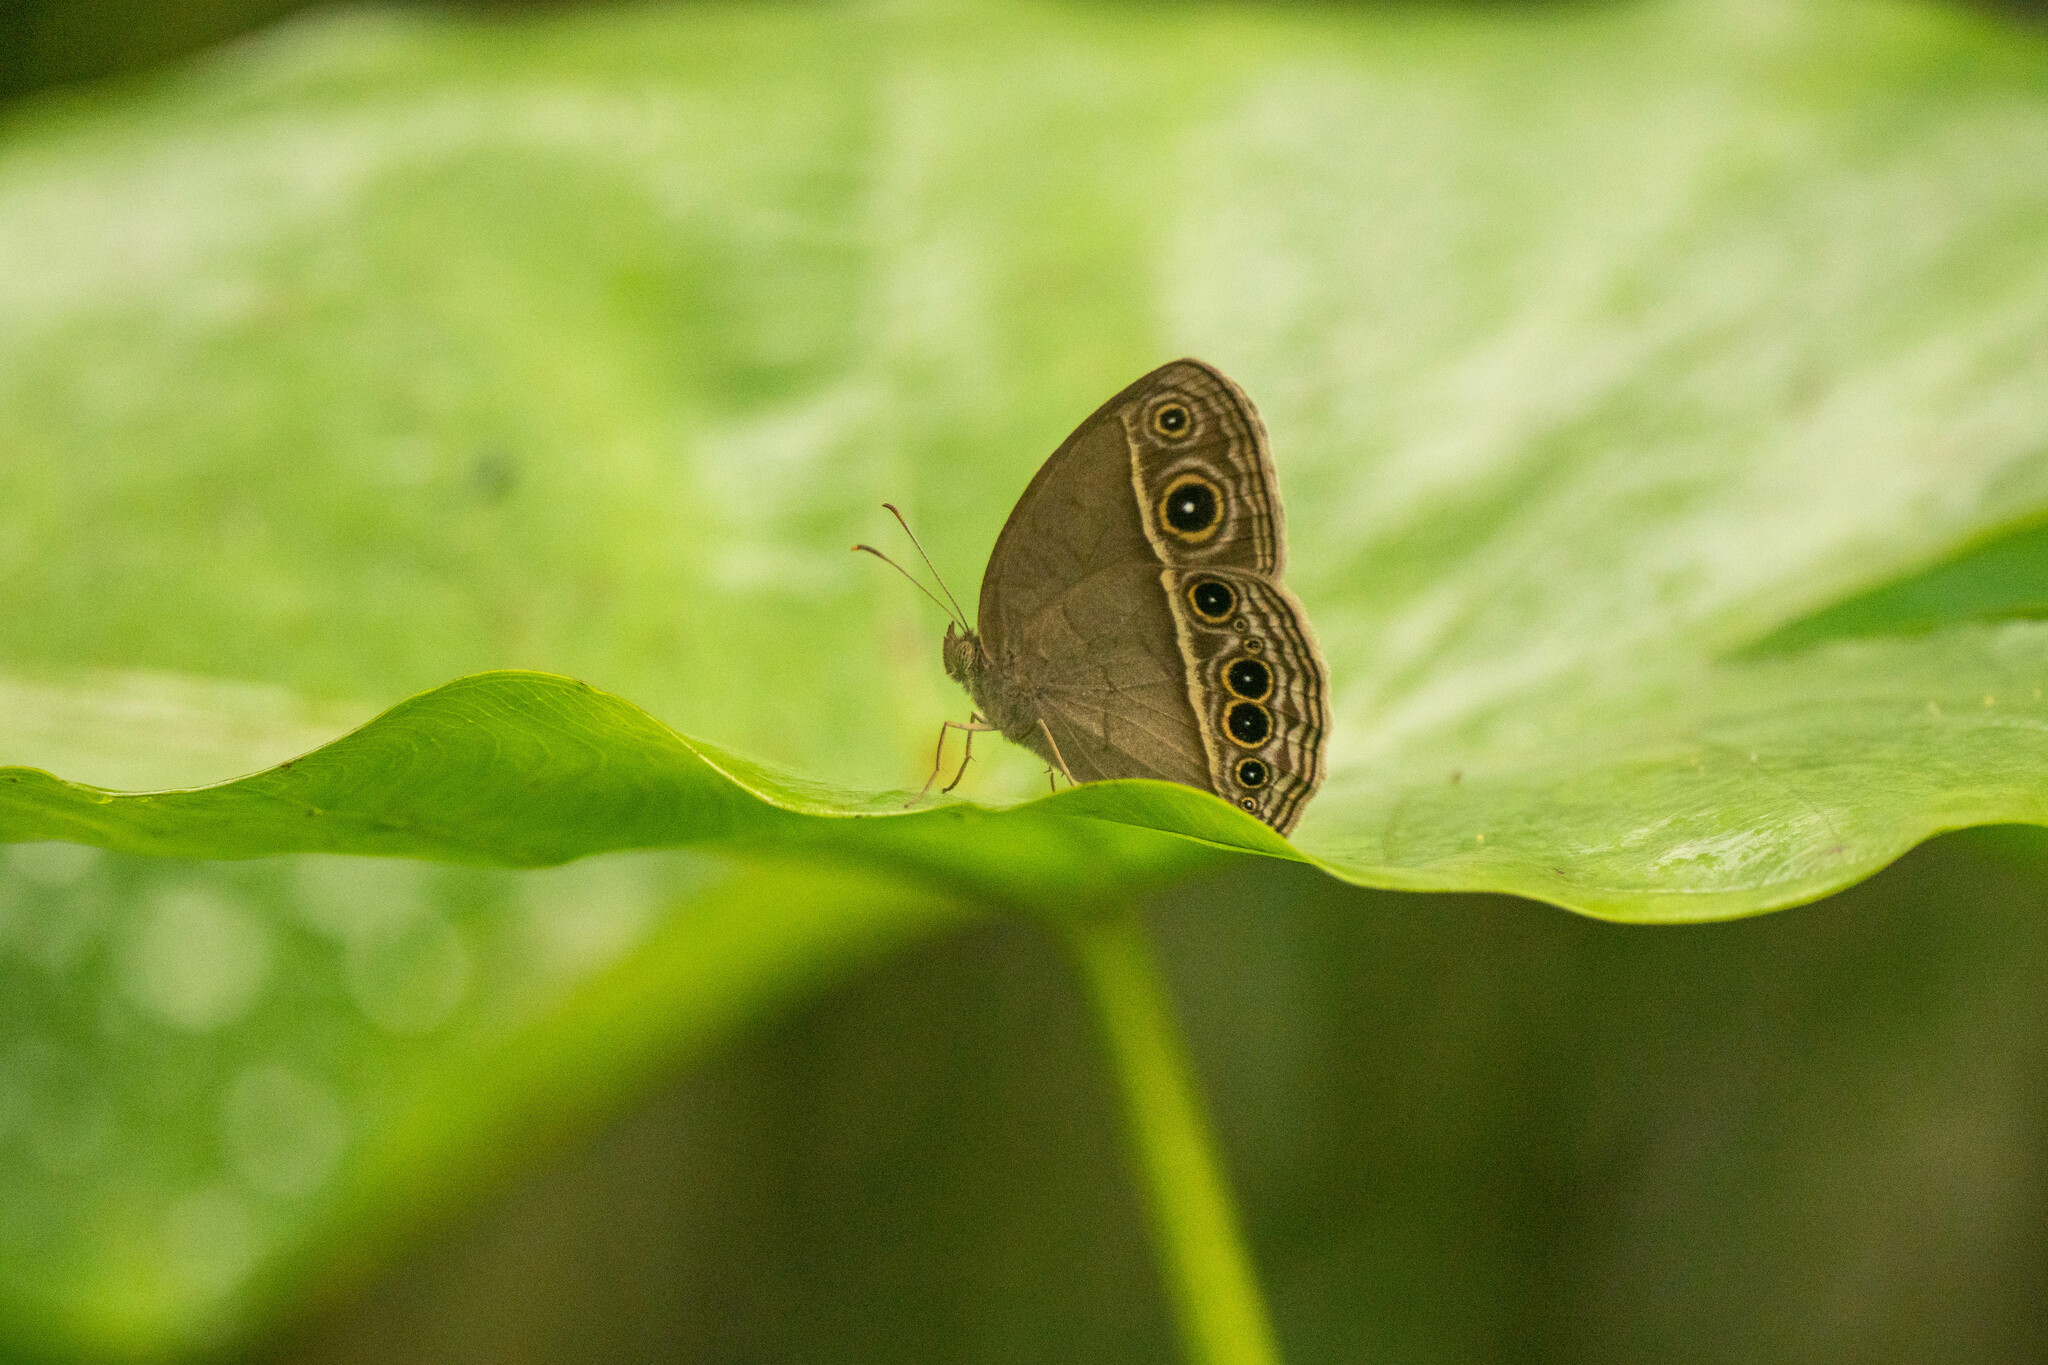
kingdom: Animalia
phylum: Arthropoda
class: Insecta
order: Lepidoptera
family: Nymphalidae
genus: Mycalesis
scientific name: Mycalesis mineus
